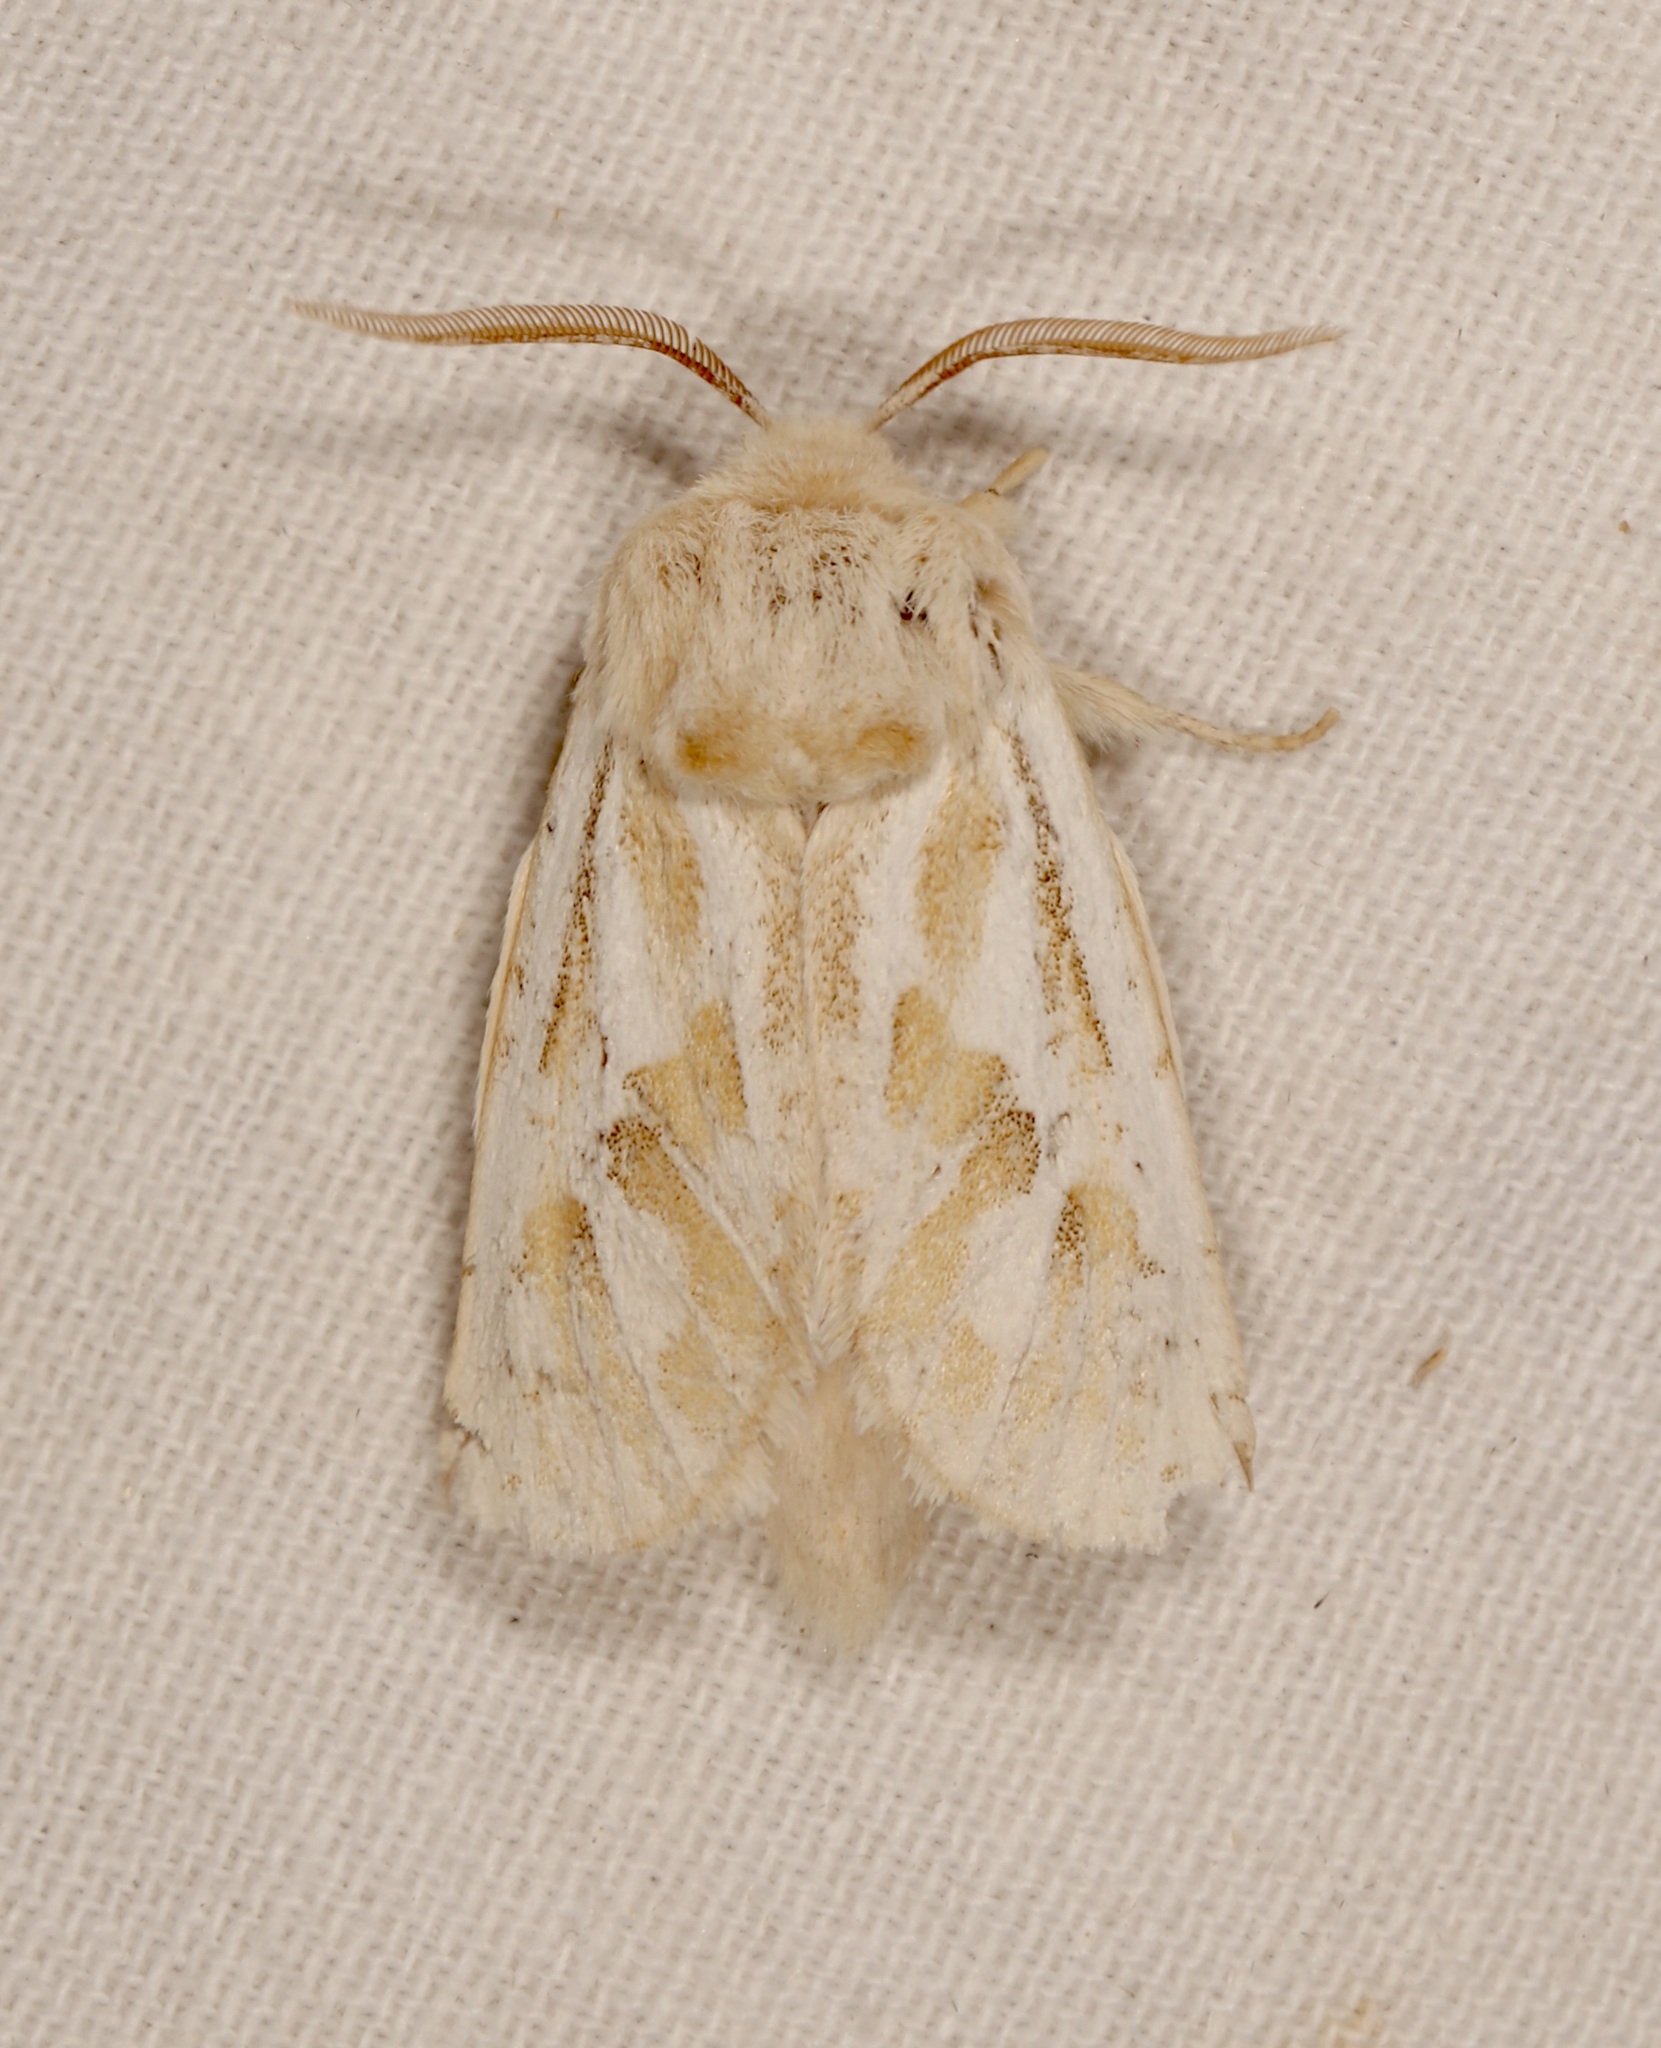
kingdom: Animalia
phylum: Arthropoda
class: Insecta
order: Lepidoptera
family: Cossidae
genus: Comadia
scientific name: Comadia henrici
